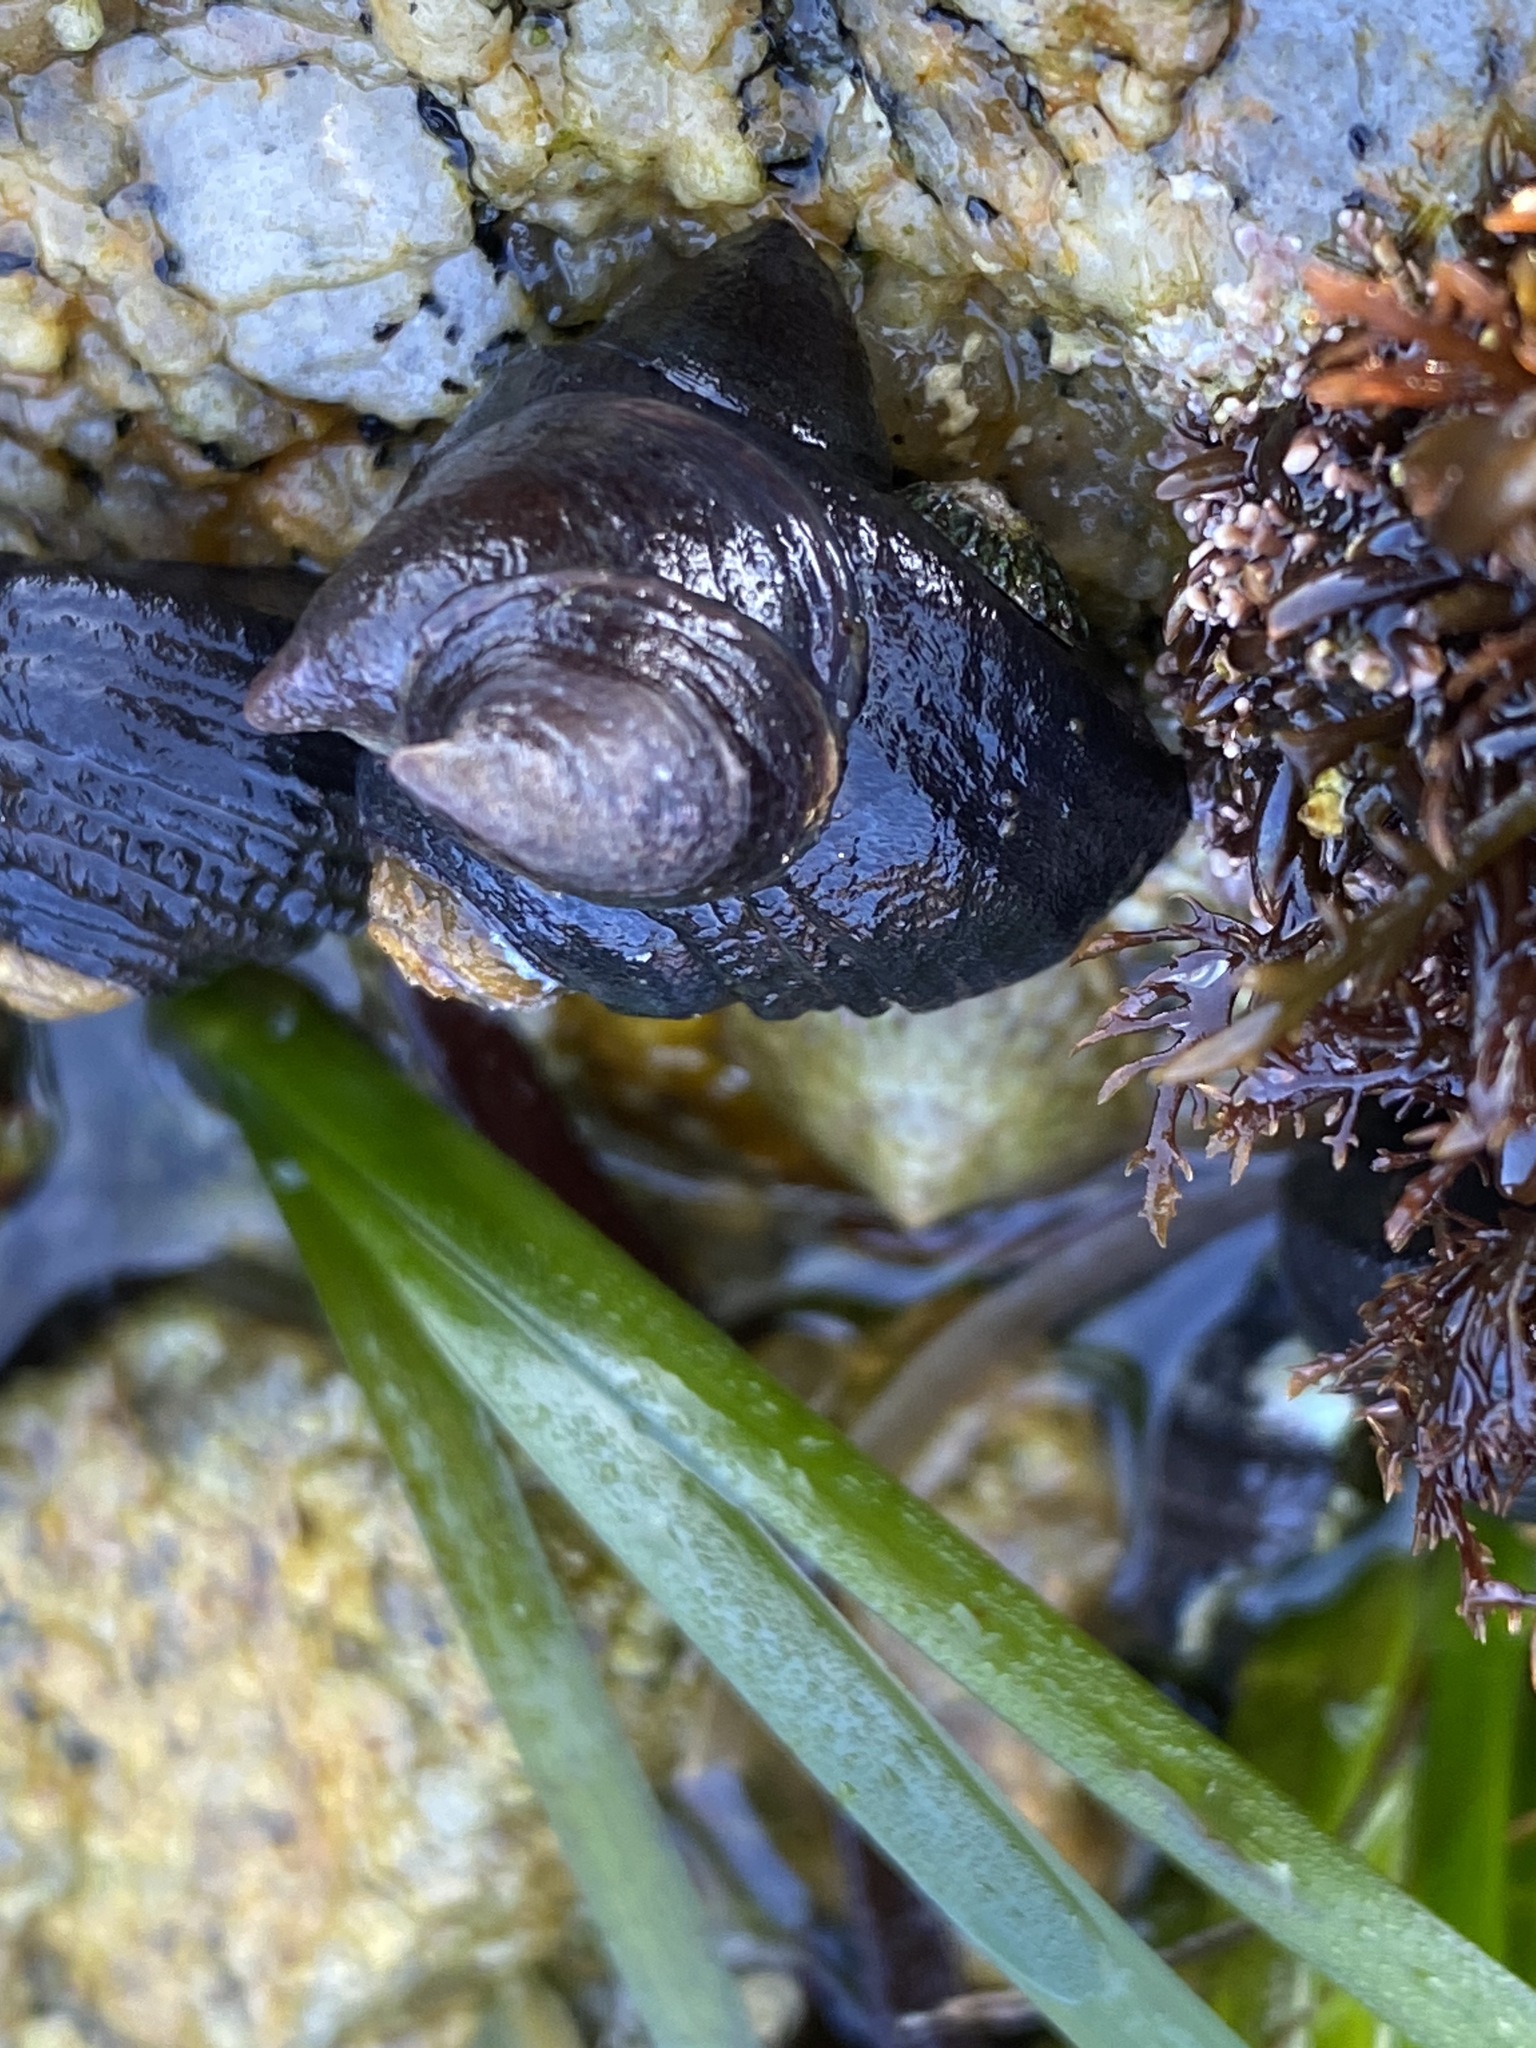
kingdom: Animalia
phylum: Mollusca
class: Gastropoda
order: Littorinimorpha
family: Calyptraeidae
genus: Crepidula
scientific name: Crepidula adunca
